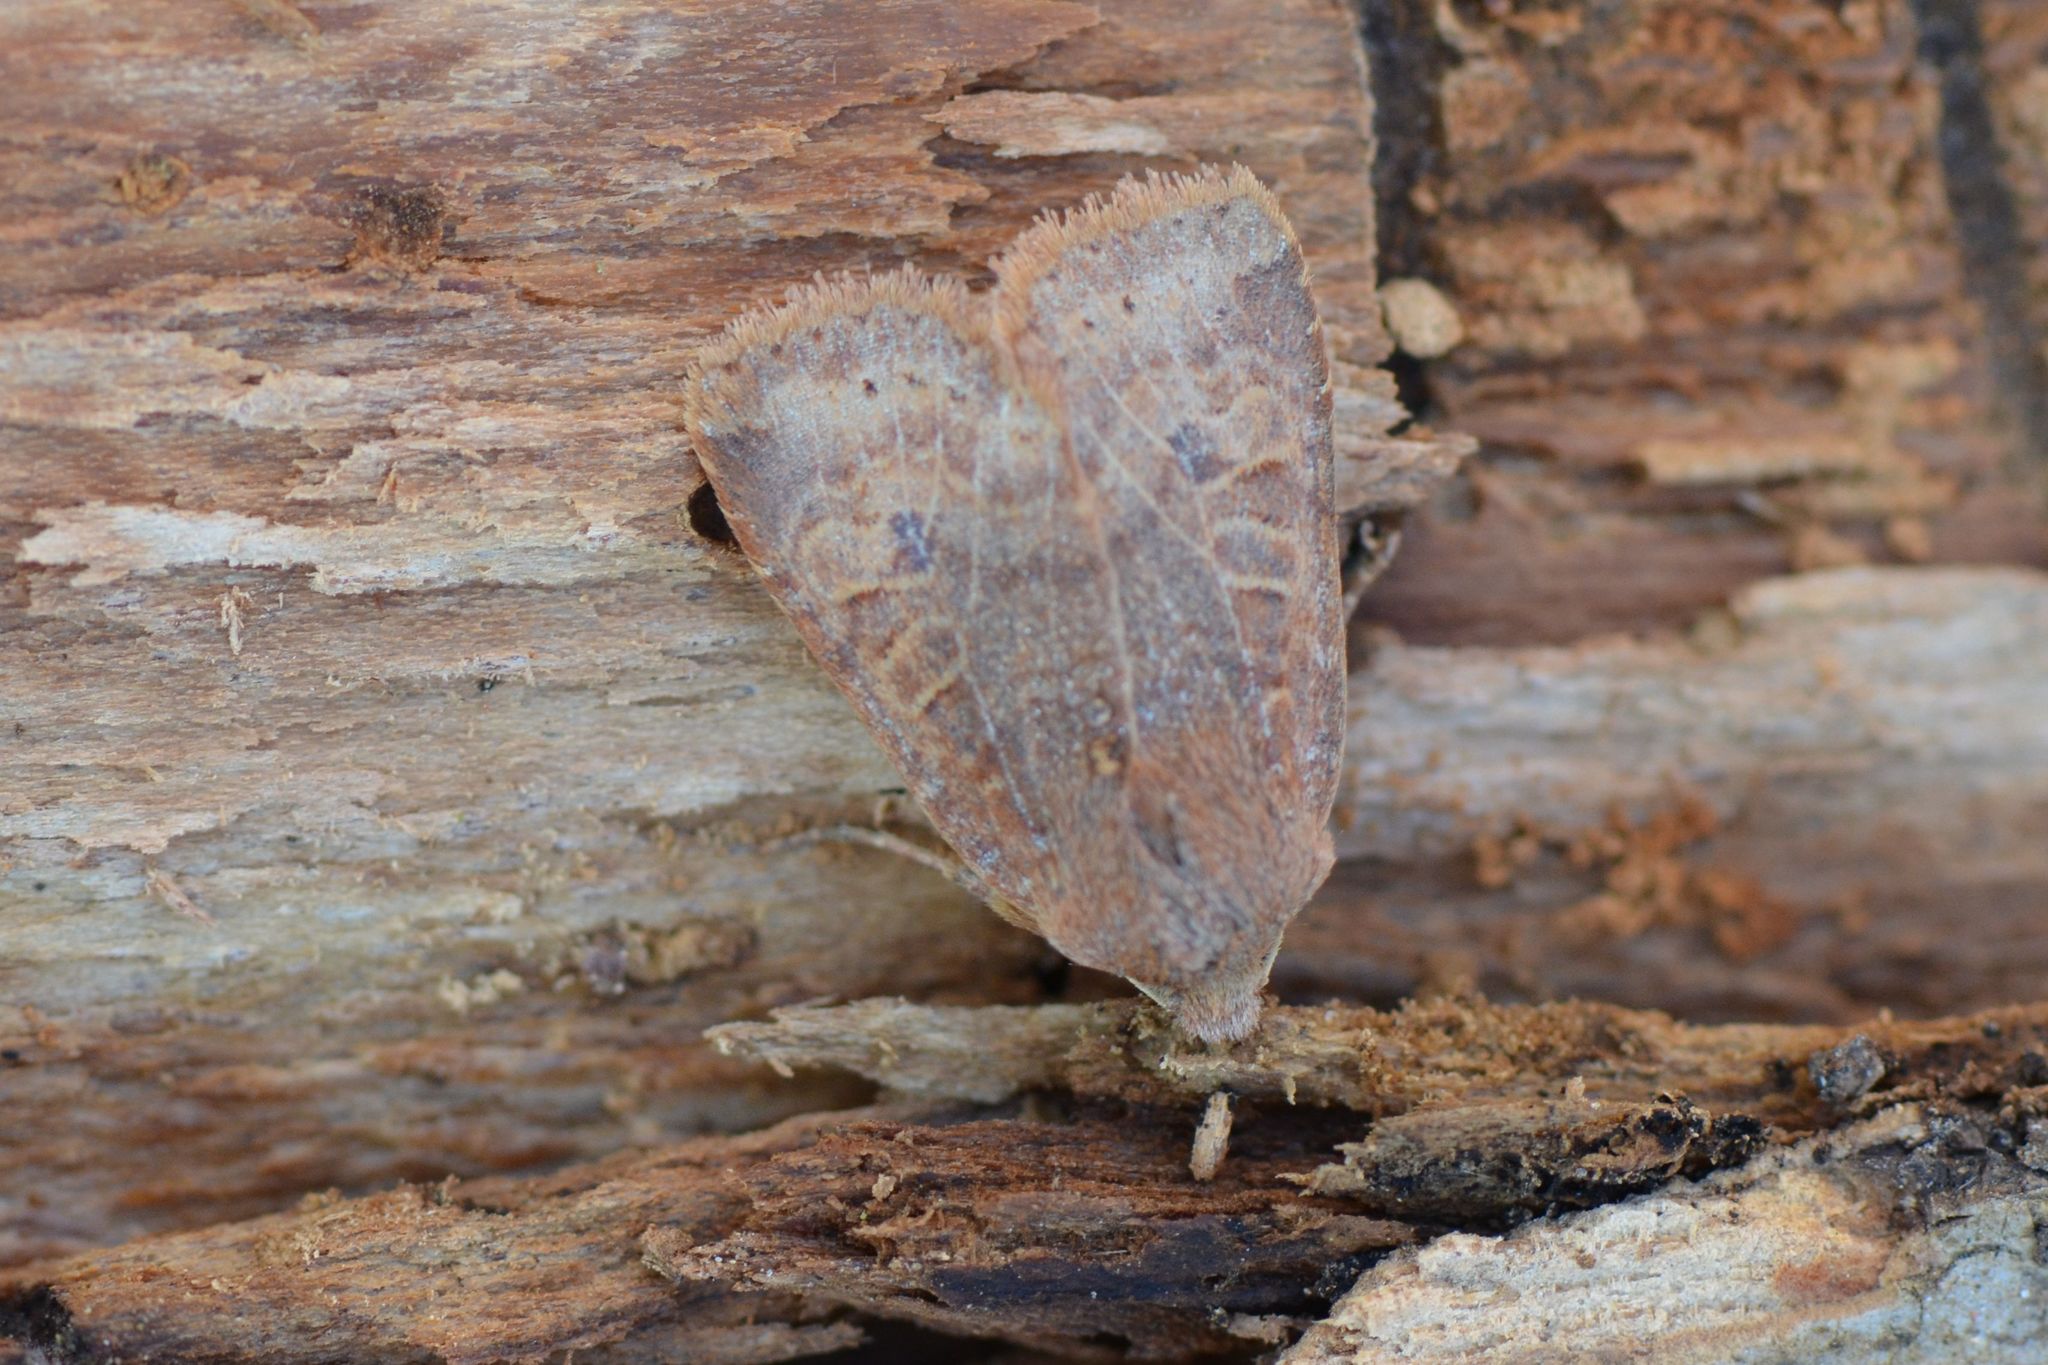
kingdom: Animalia
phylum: Arthropoda
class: Insecta
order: Lepidoptera
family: Noctuidae
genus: Conistra
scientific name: Conistra vaccinii
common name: Chestnut
